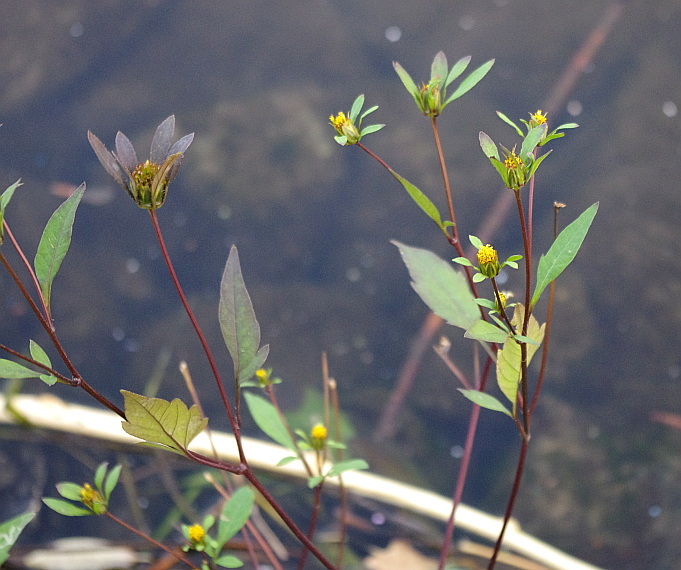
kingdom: Plantae
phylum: Tracheophyta
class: Magnoliopsida
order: Asterales
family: Asteraceae
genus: Bidens
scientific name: Bidens frondosa
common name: Beggarticks
